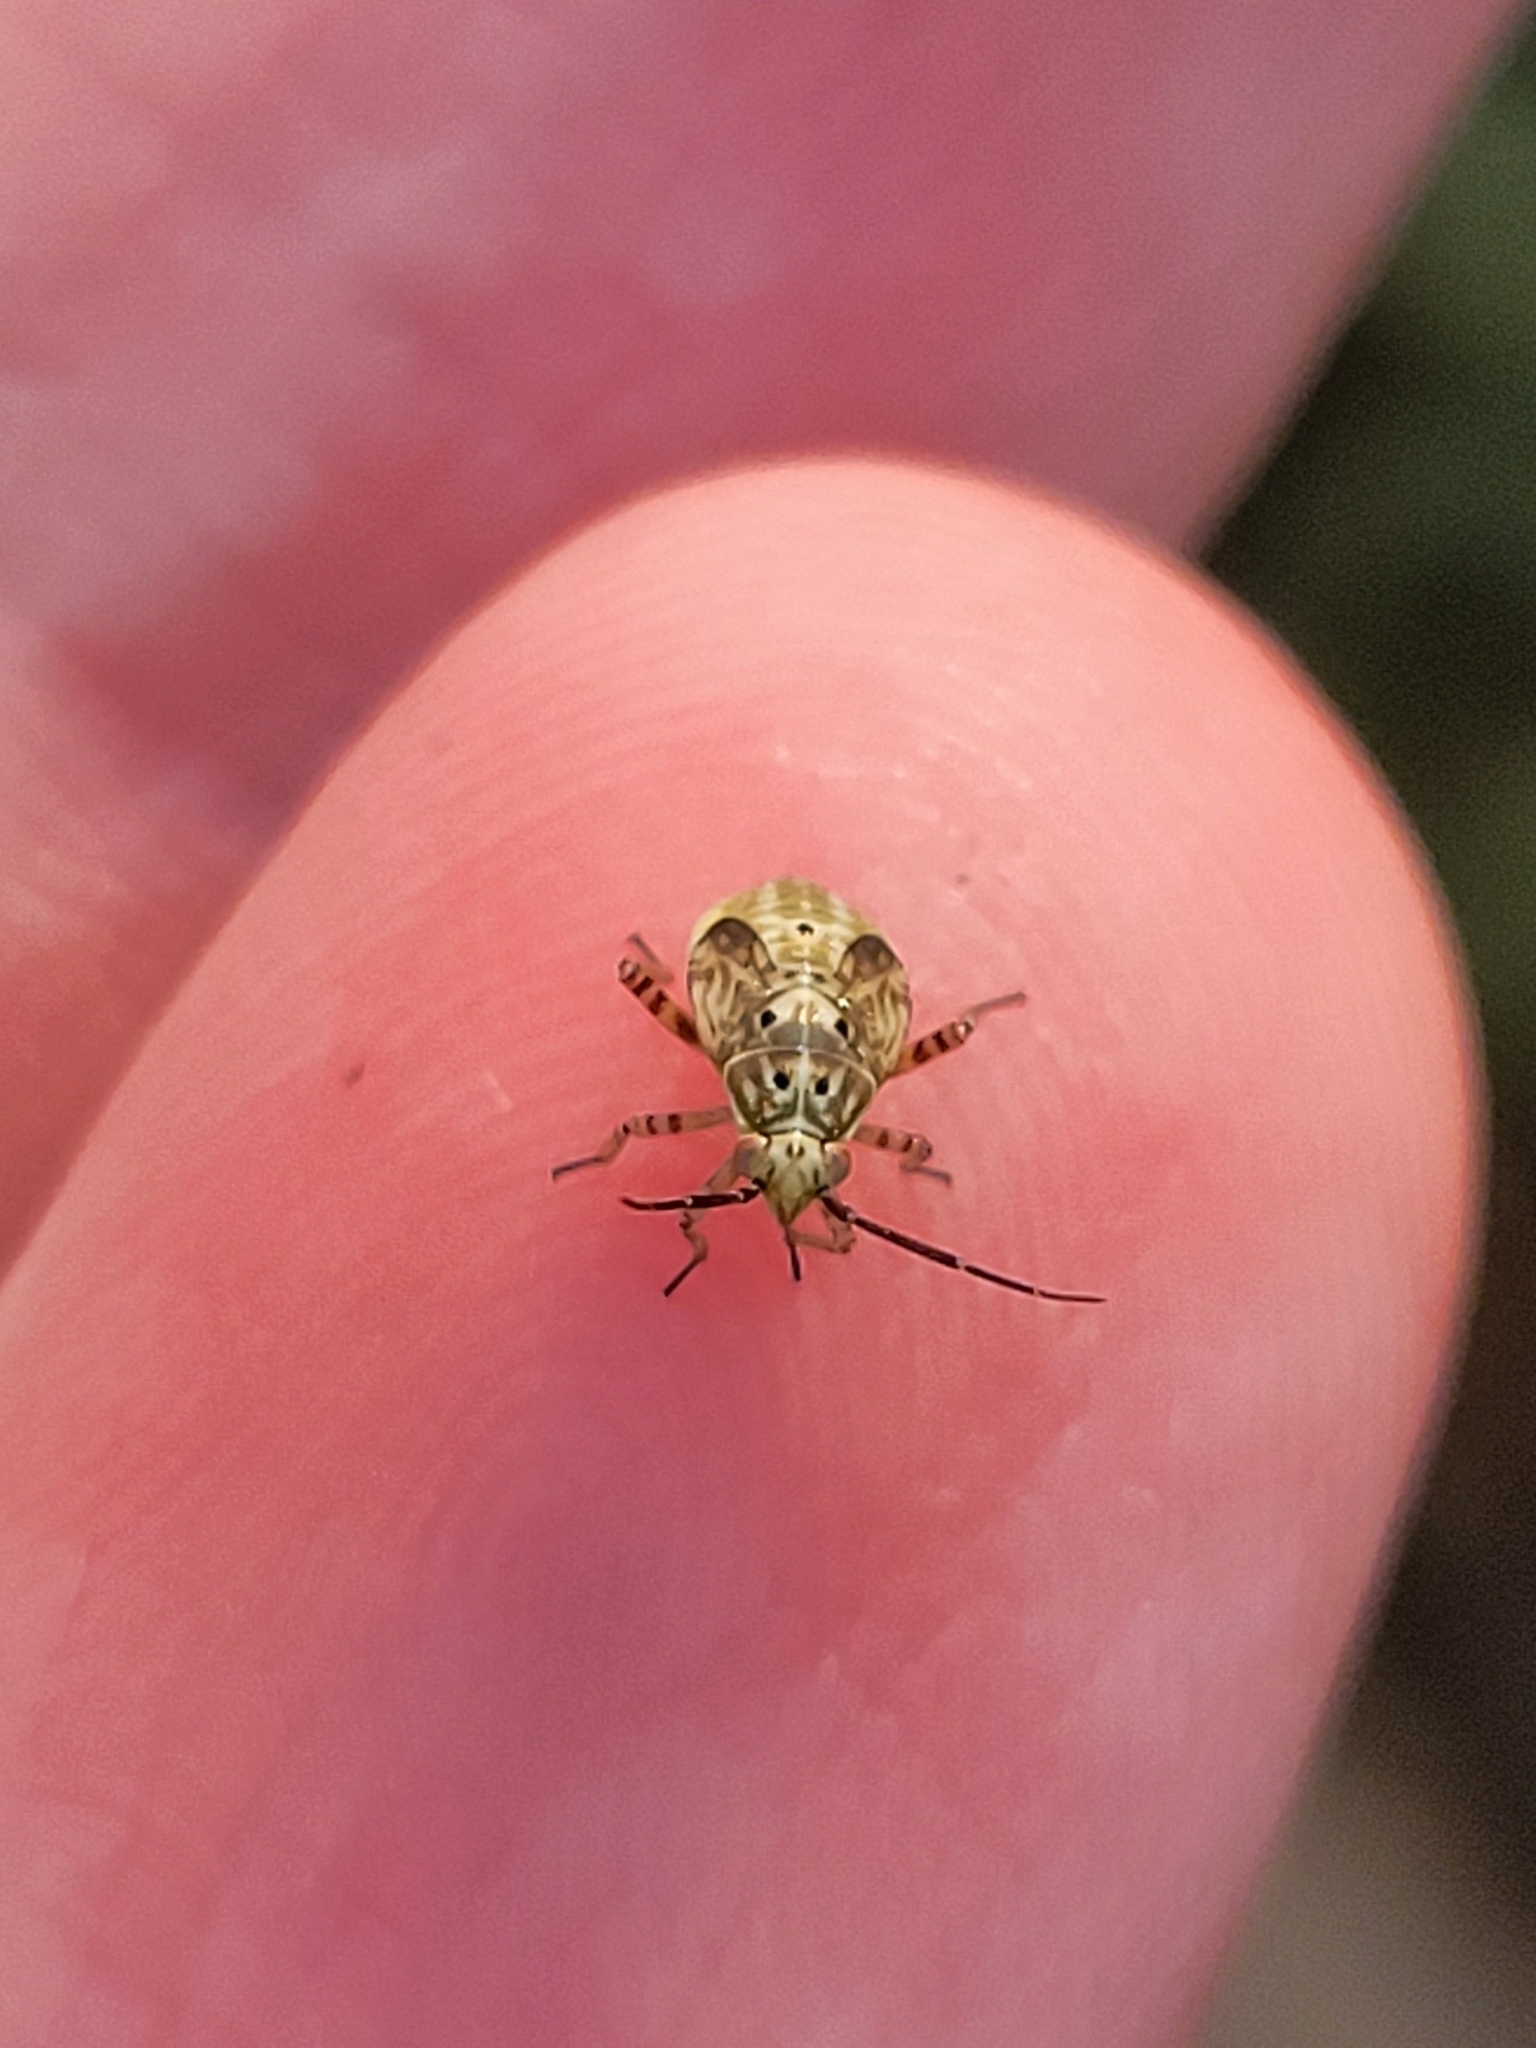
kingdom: Animalia
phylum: Arthropoda
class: Insecta
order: Hemiptera
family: Miridae
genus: Lygus
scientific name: Lygus lineolaris
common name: North american tarnished plant bug
